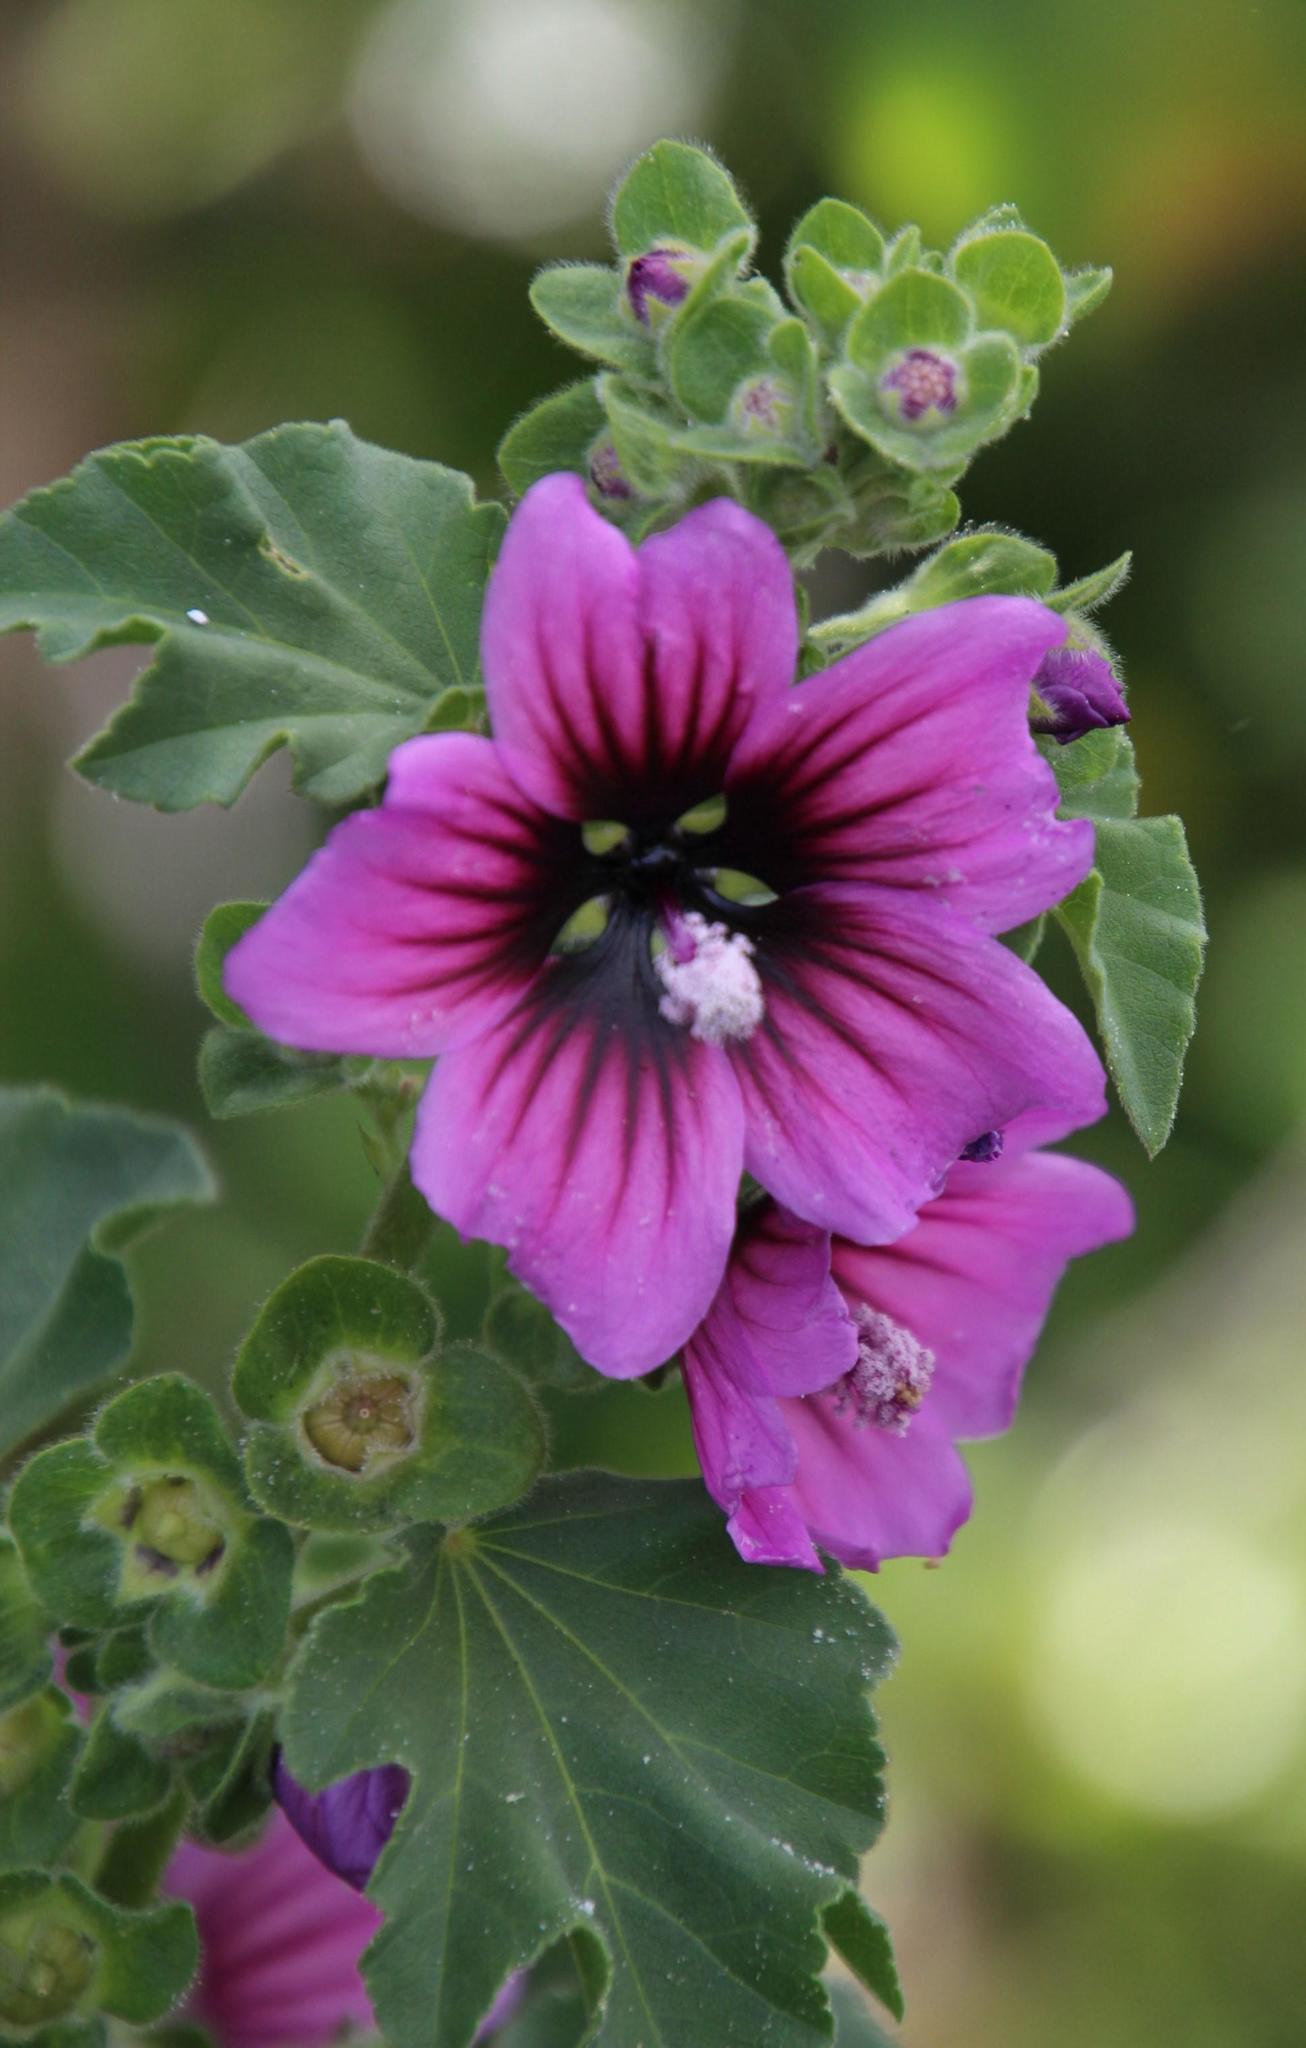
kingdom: Plantae
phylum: Tracheophyta
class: Magnoliopsida
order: Malvales
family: Malvaceae
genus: Malva
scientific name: Malva arborea
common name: Tree mallow
